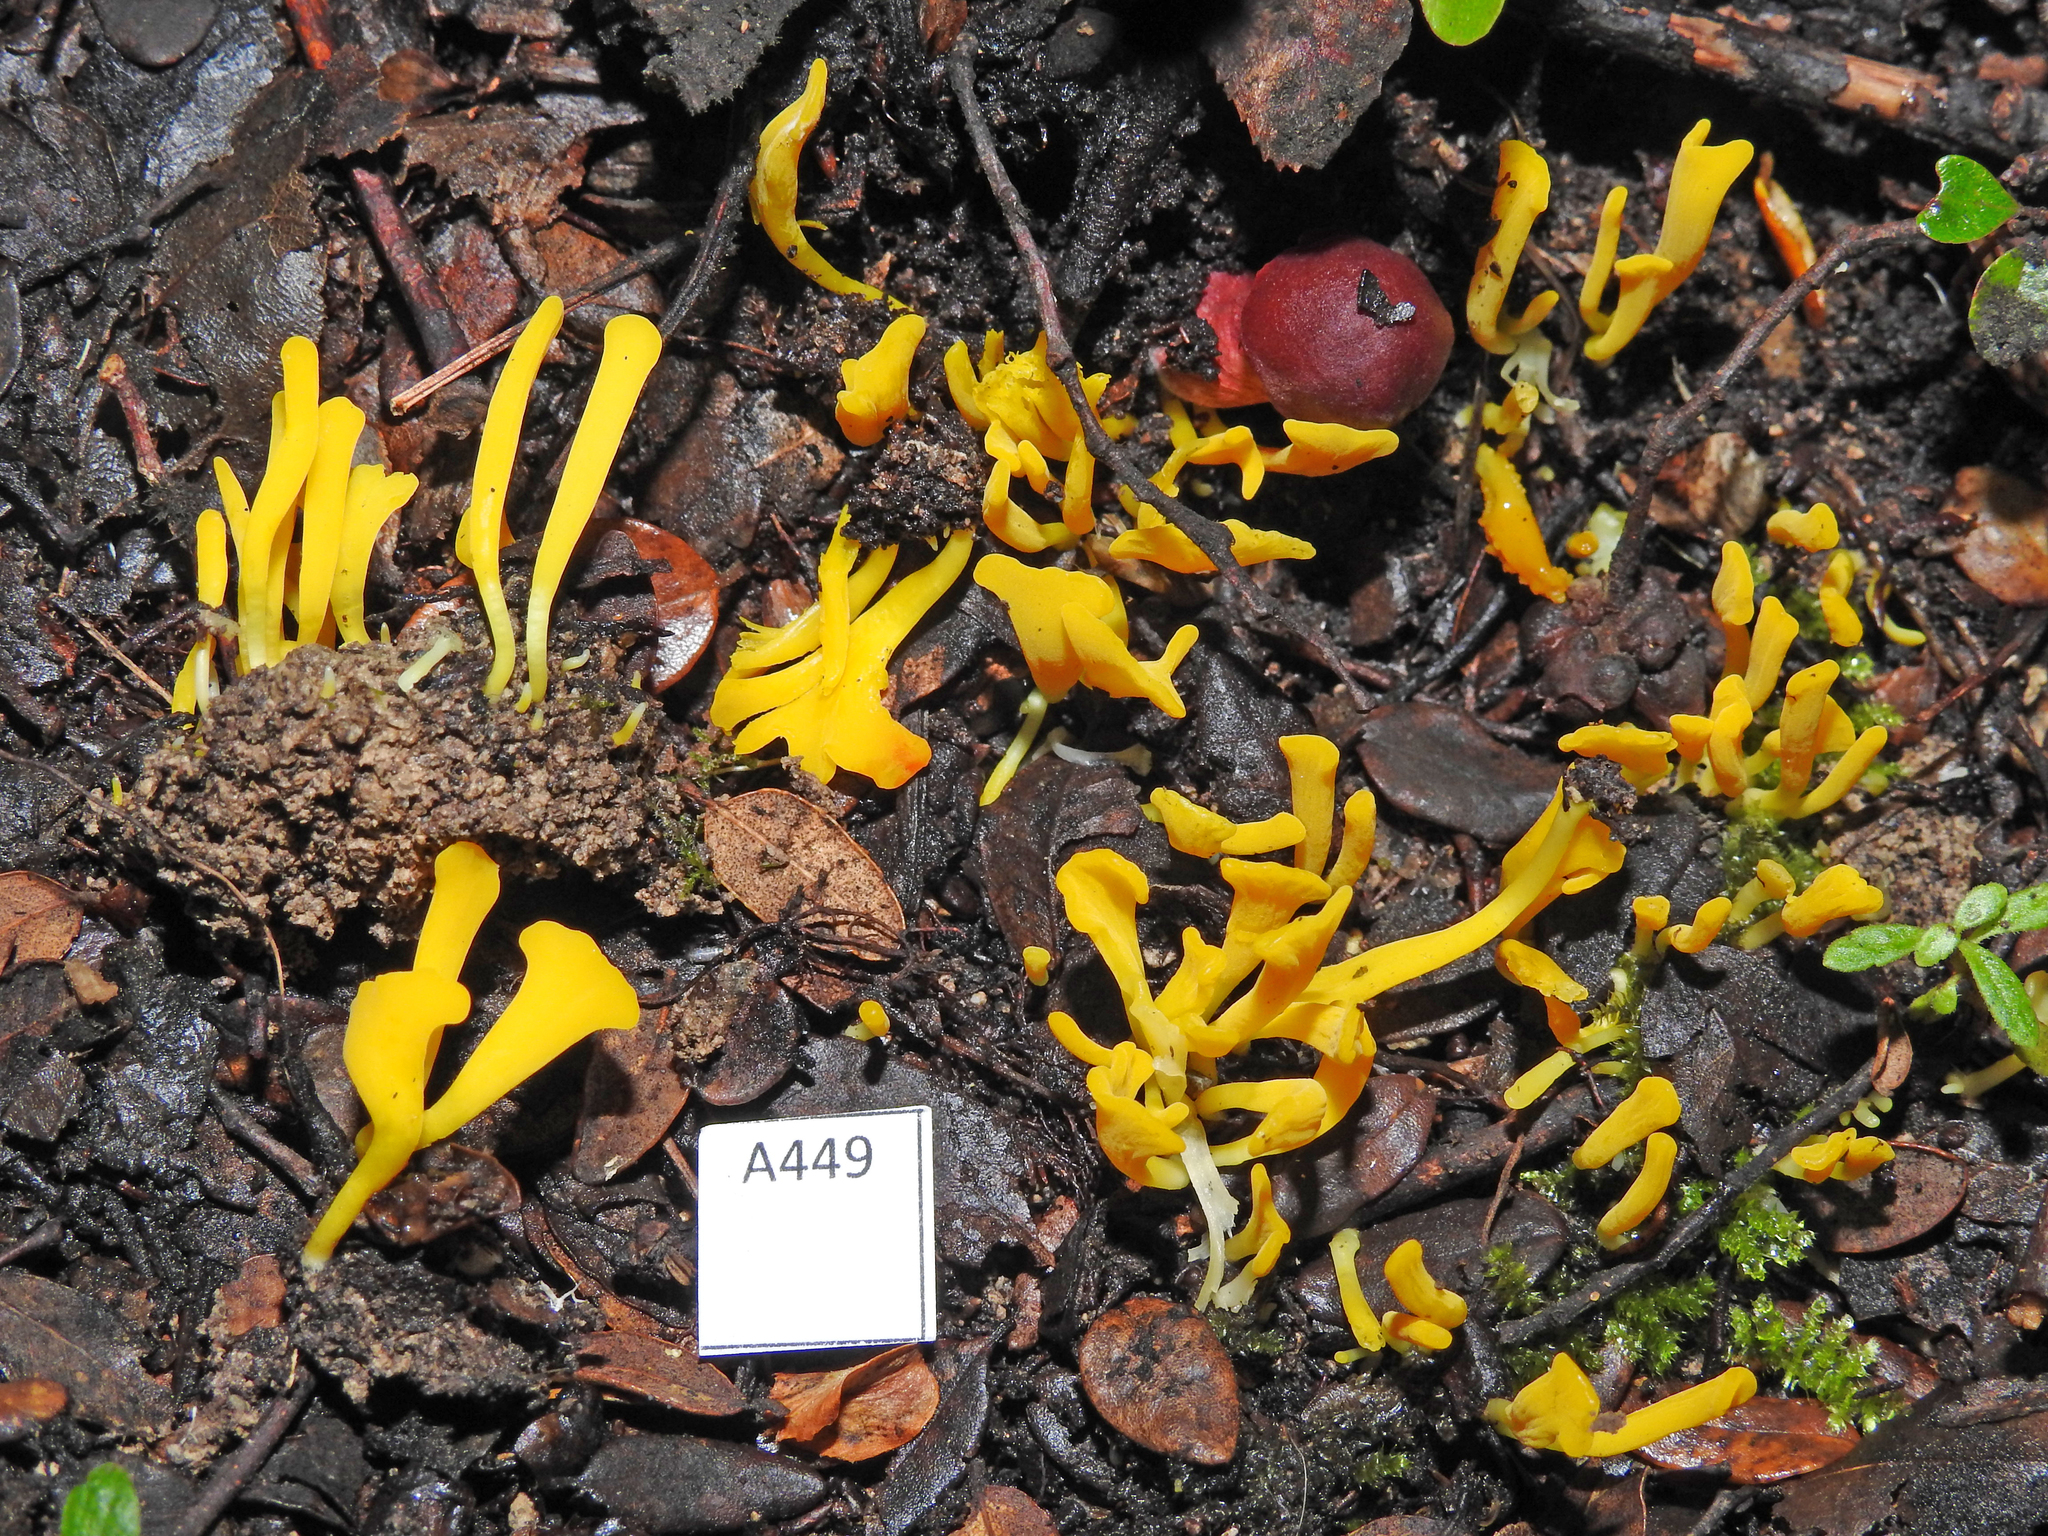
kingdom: Fungi
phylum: Basidiomycota
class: Agaricomycetes
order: Agaricales
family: Clavariaceae
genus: Clavulinopsis
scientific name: Clavulinopsis archeri
